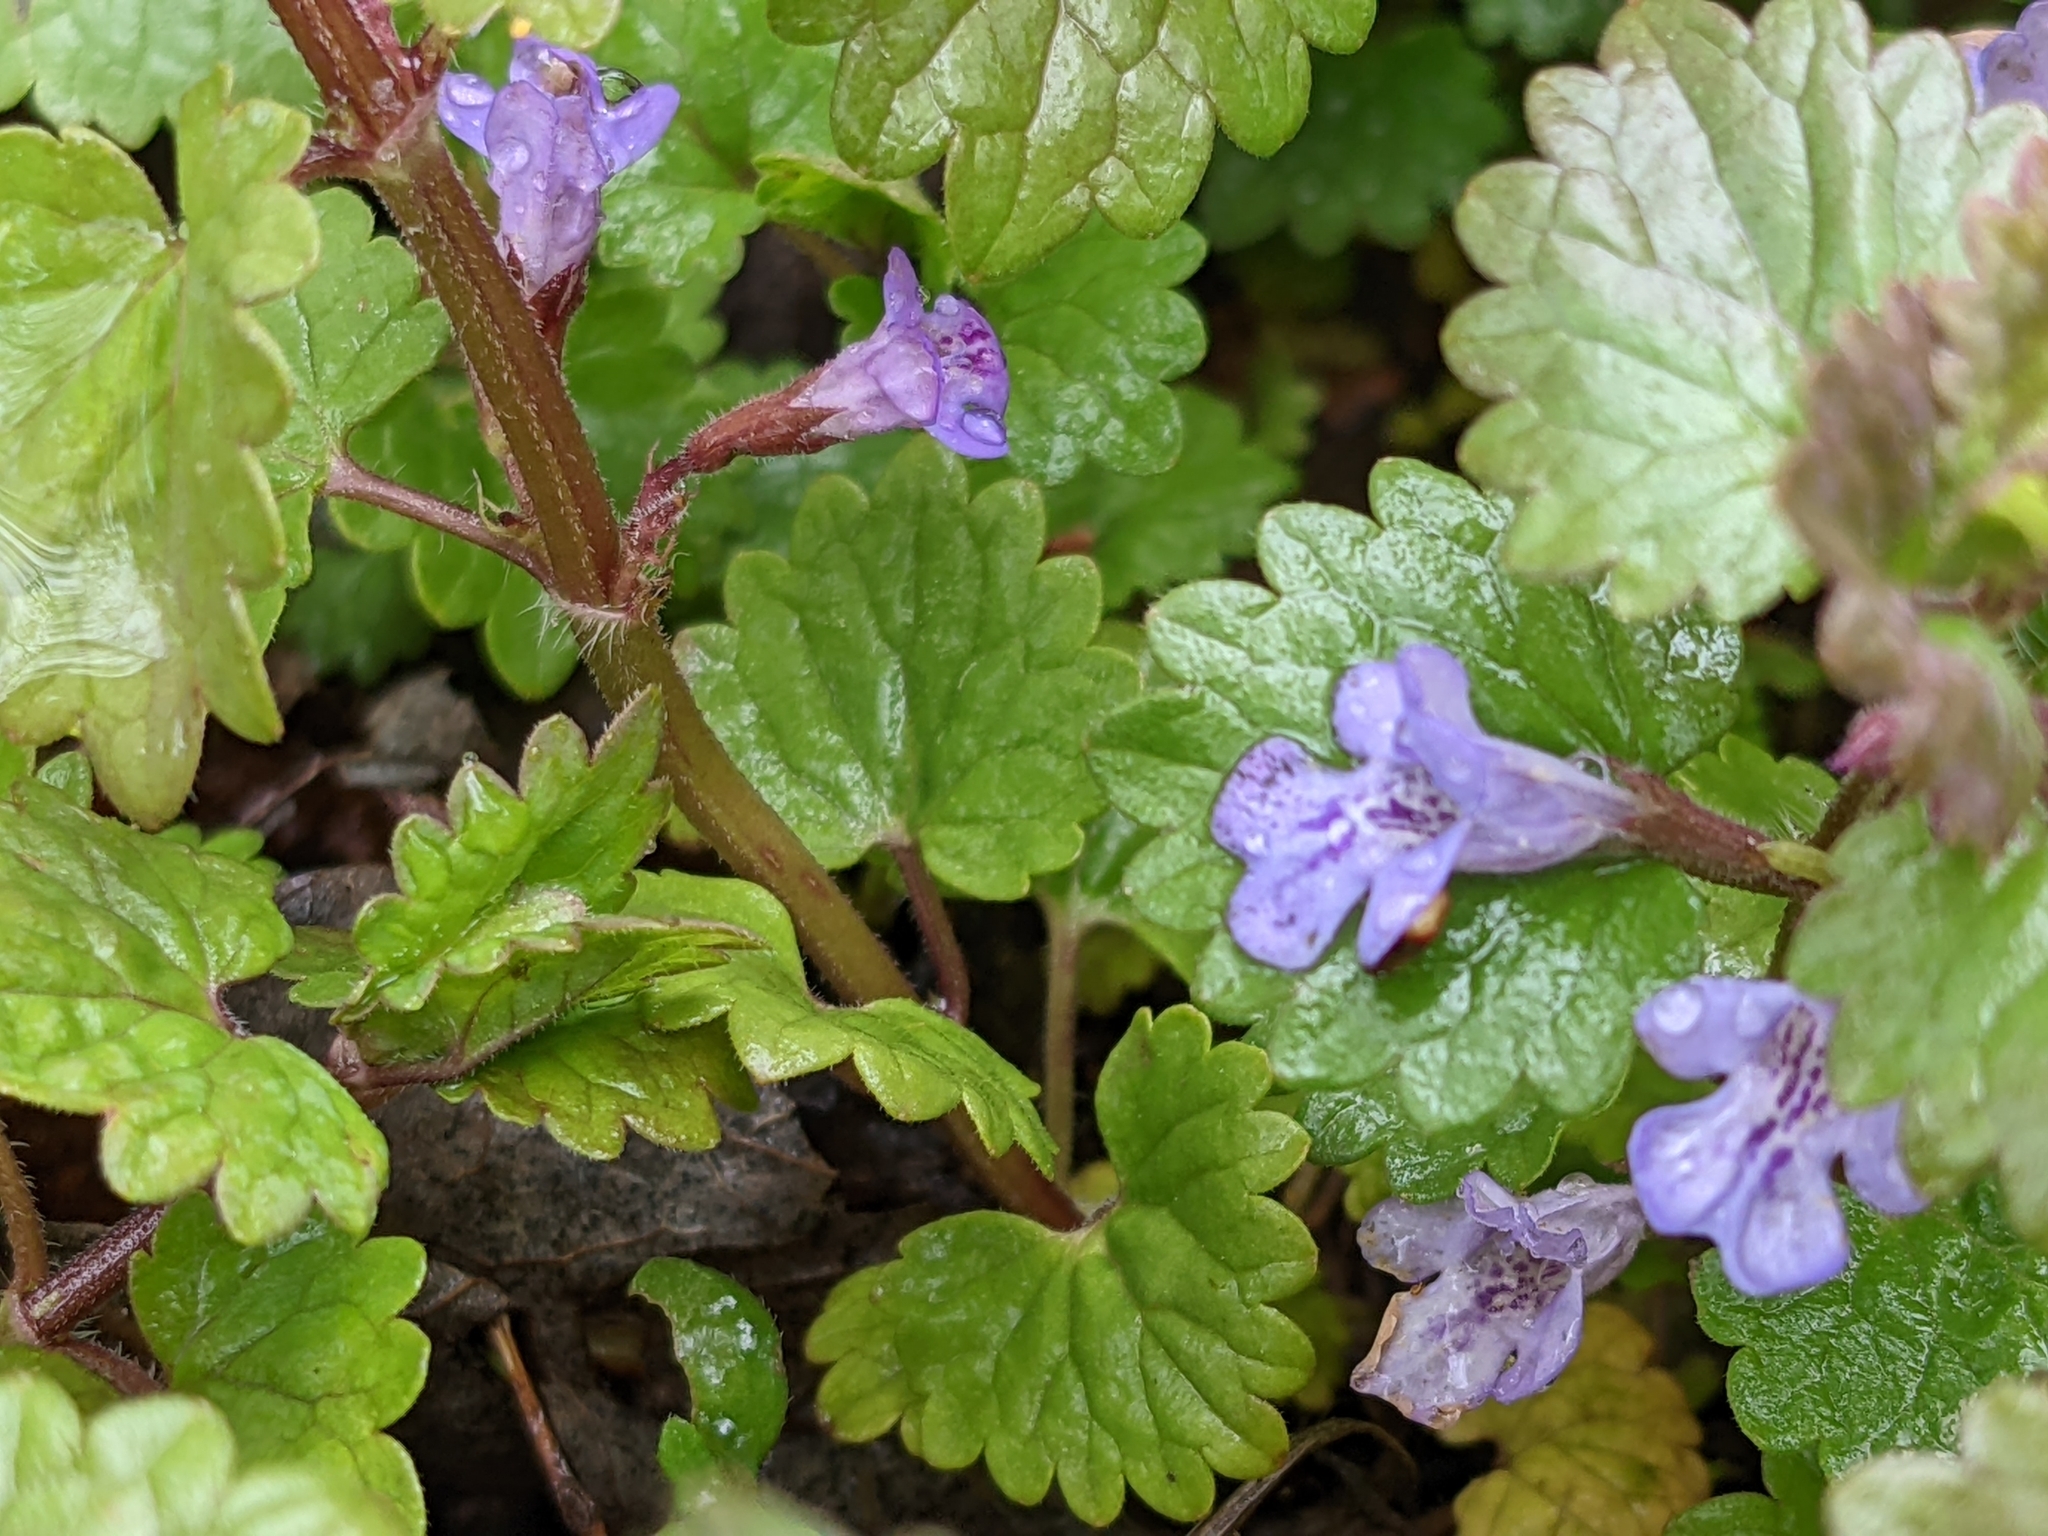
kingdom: Plantae
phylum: Tracheophyta
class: Magnoliopsida
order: Lamiales
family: Lamiaceae
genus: Glechoma
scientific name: Glechoma hederacea
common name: Ground ivy
